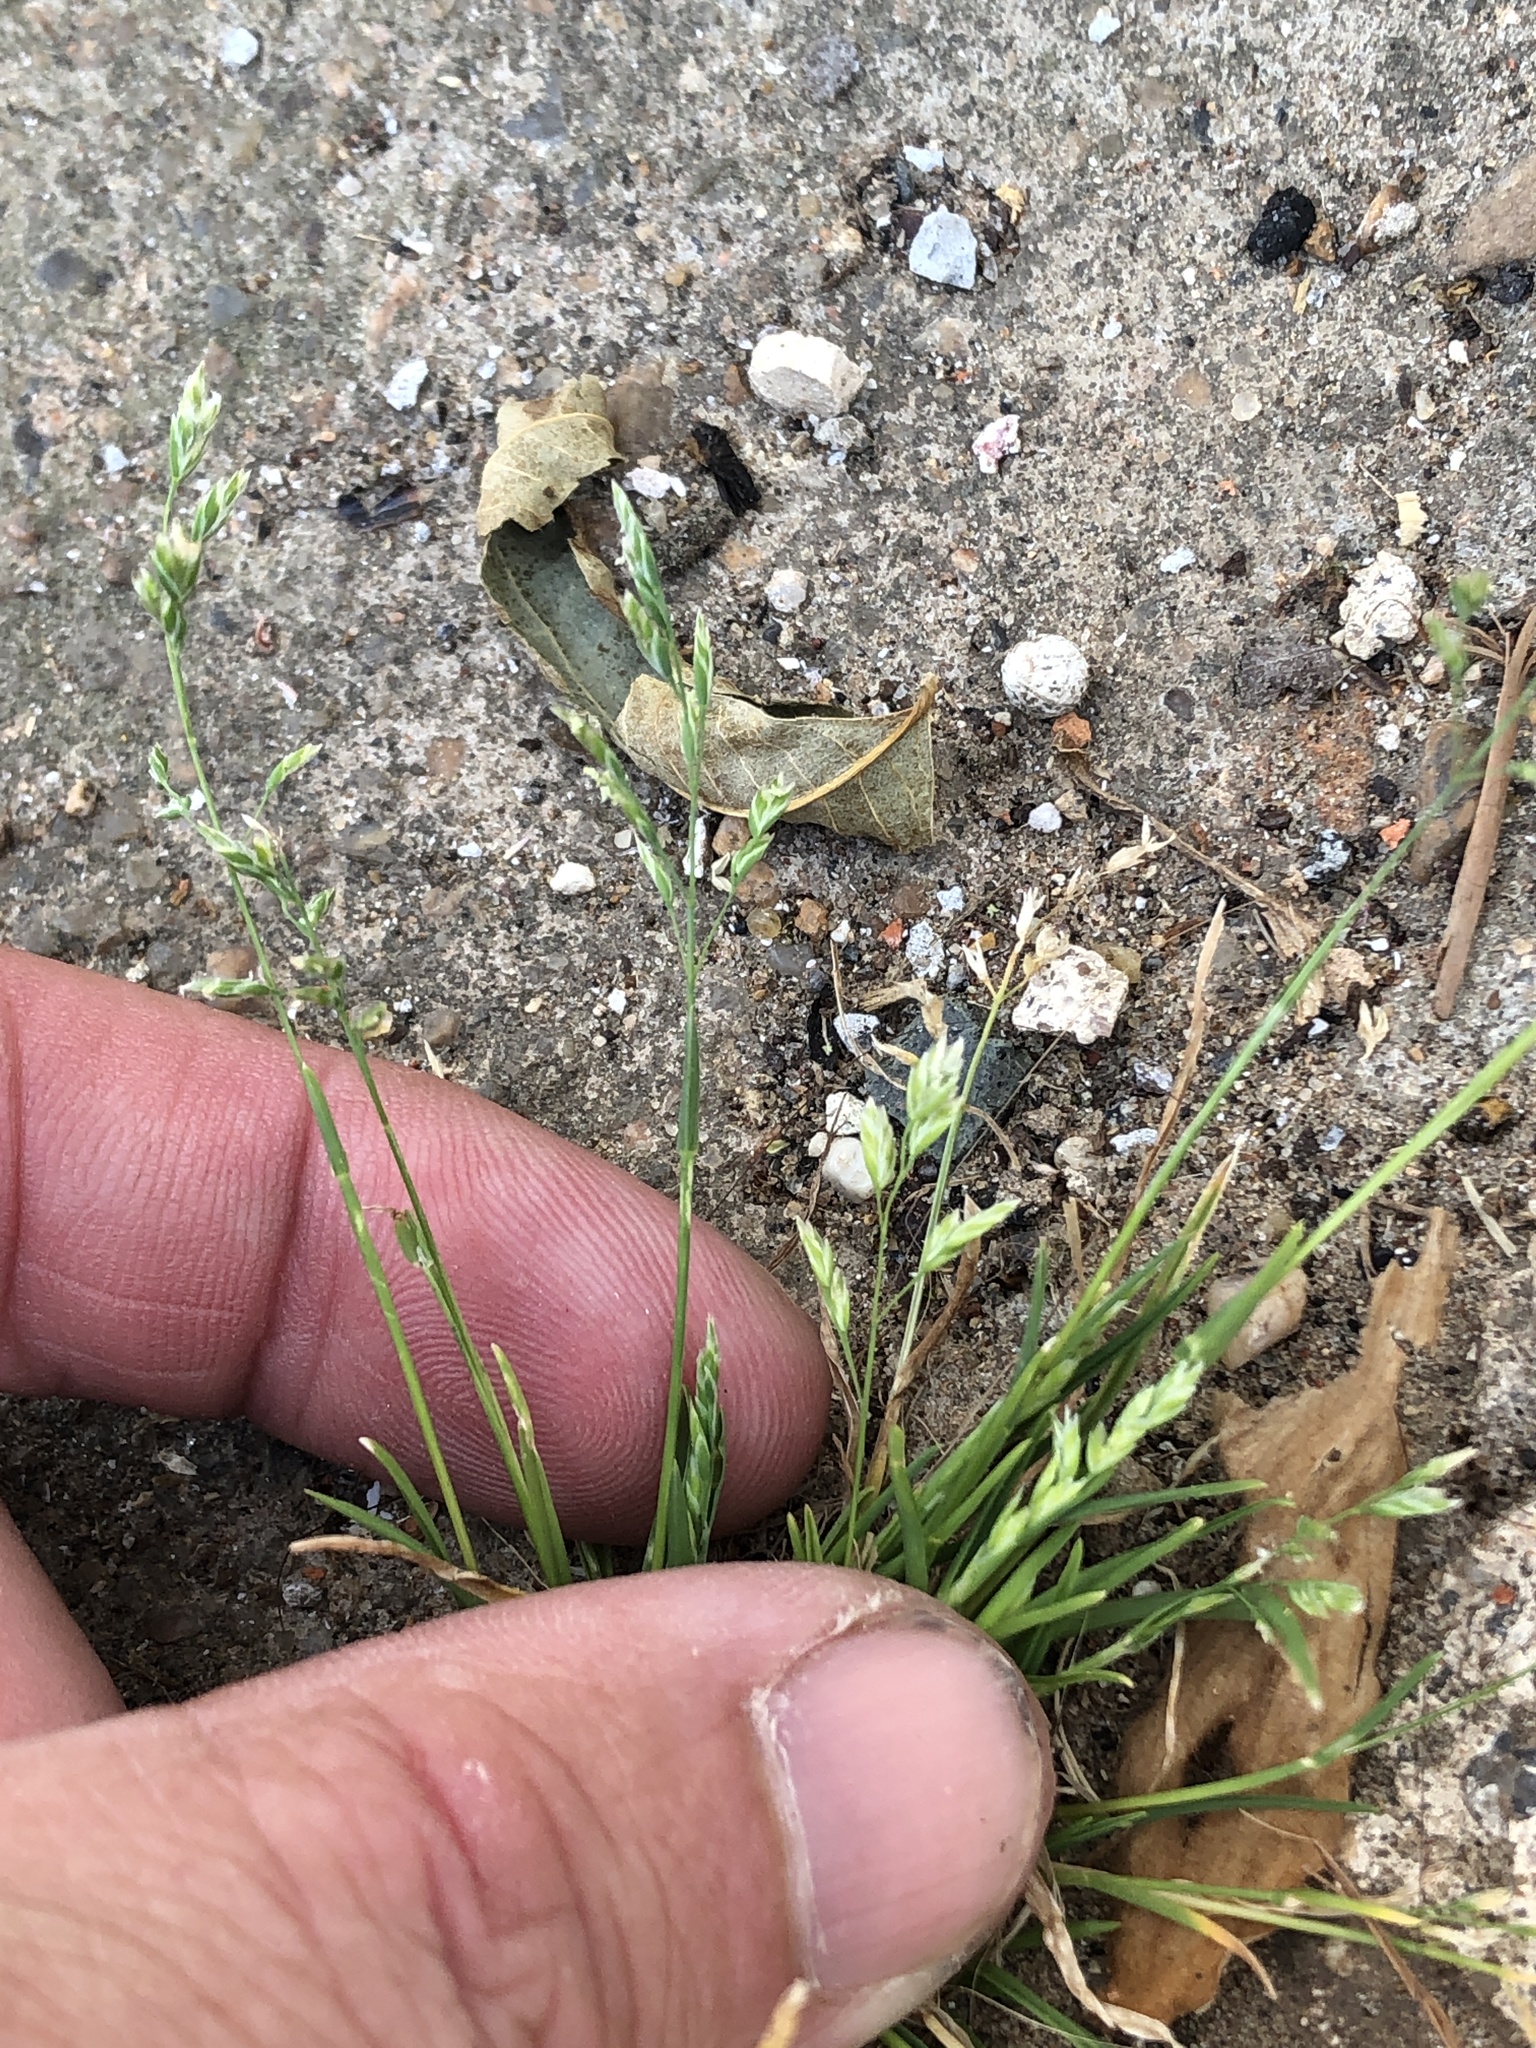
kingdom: Plantae
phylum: Tracheophyta
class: Liliopsida
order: Poales
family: Poaceae
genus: Poa
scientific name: Poa annua
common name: Annual bluegrass
